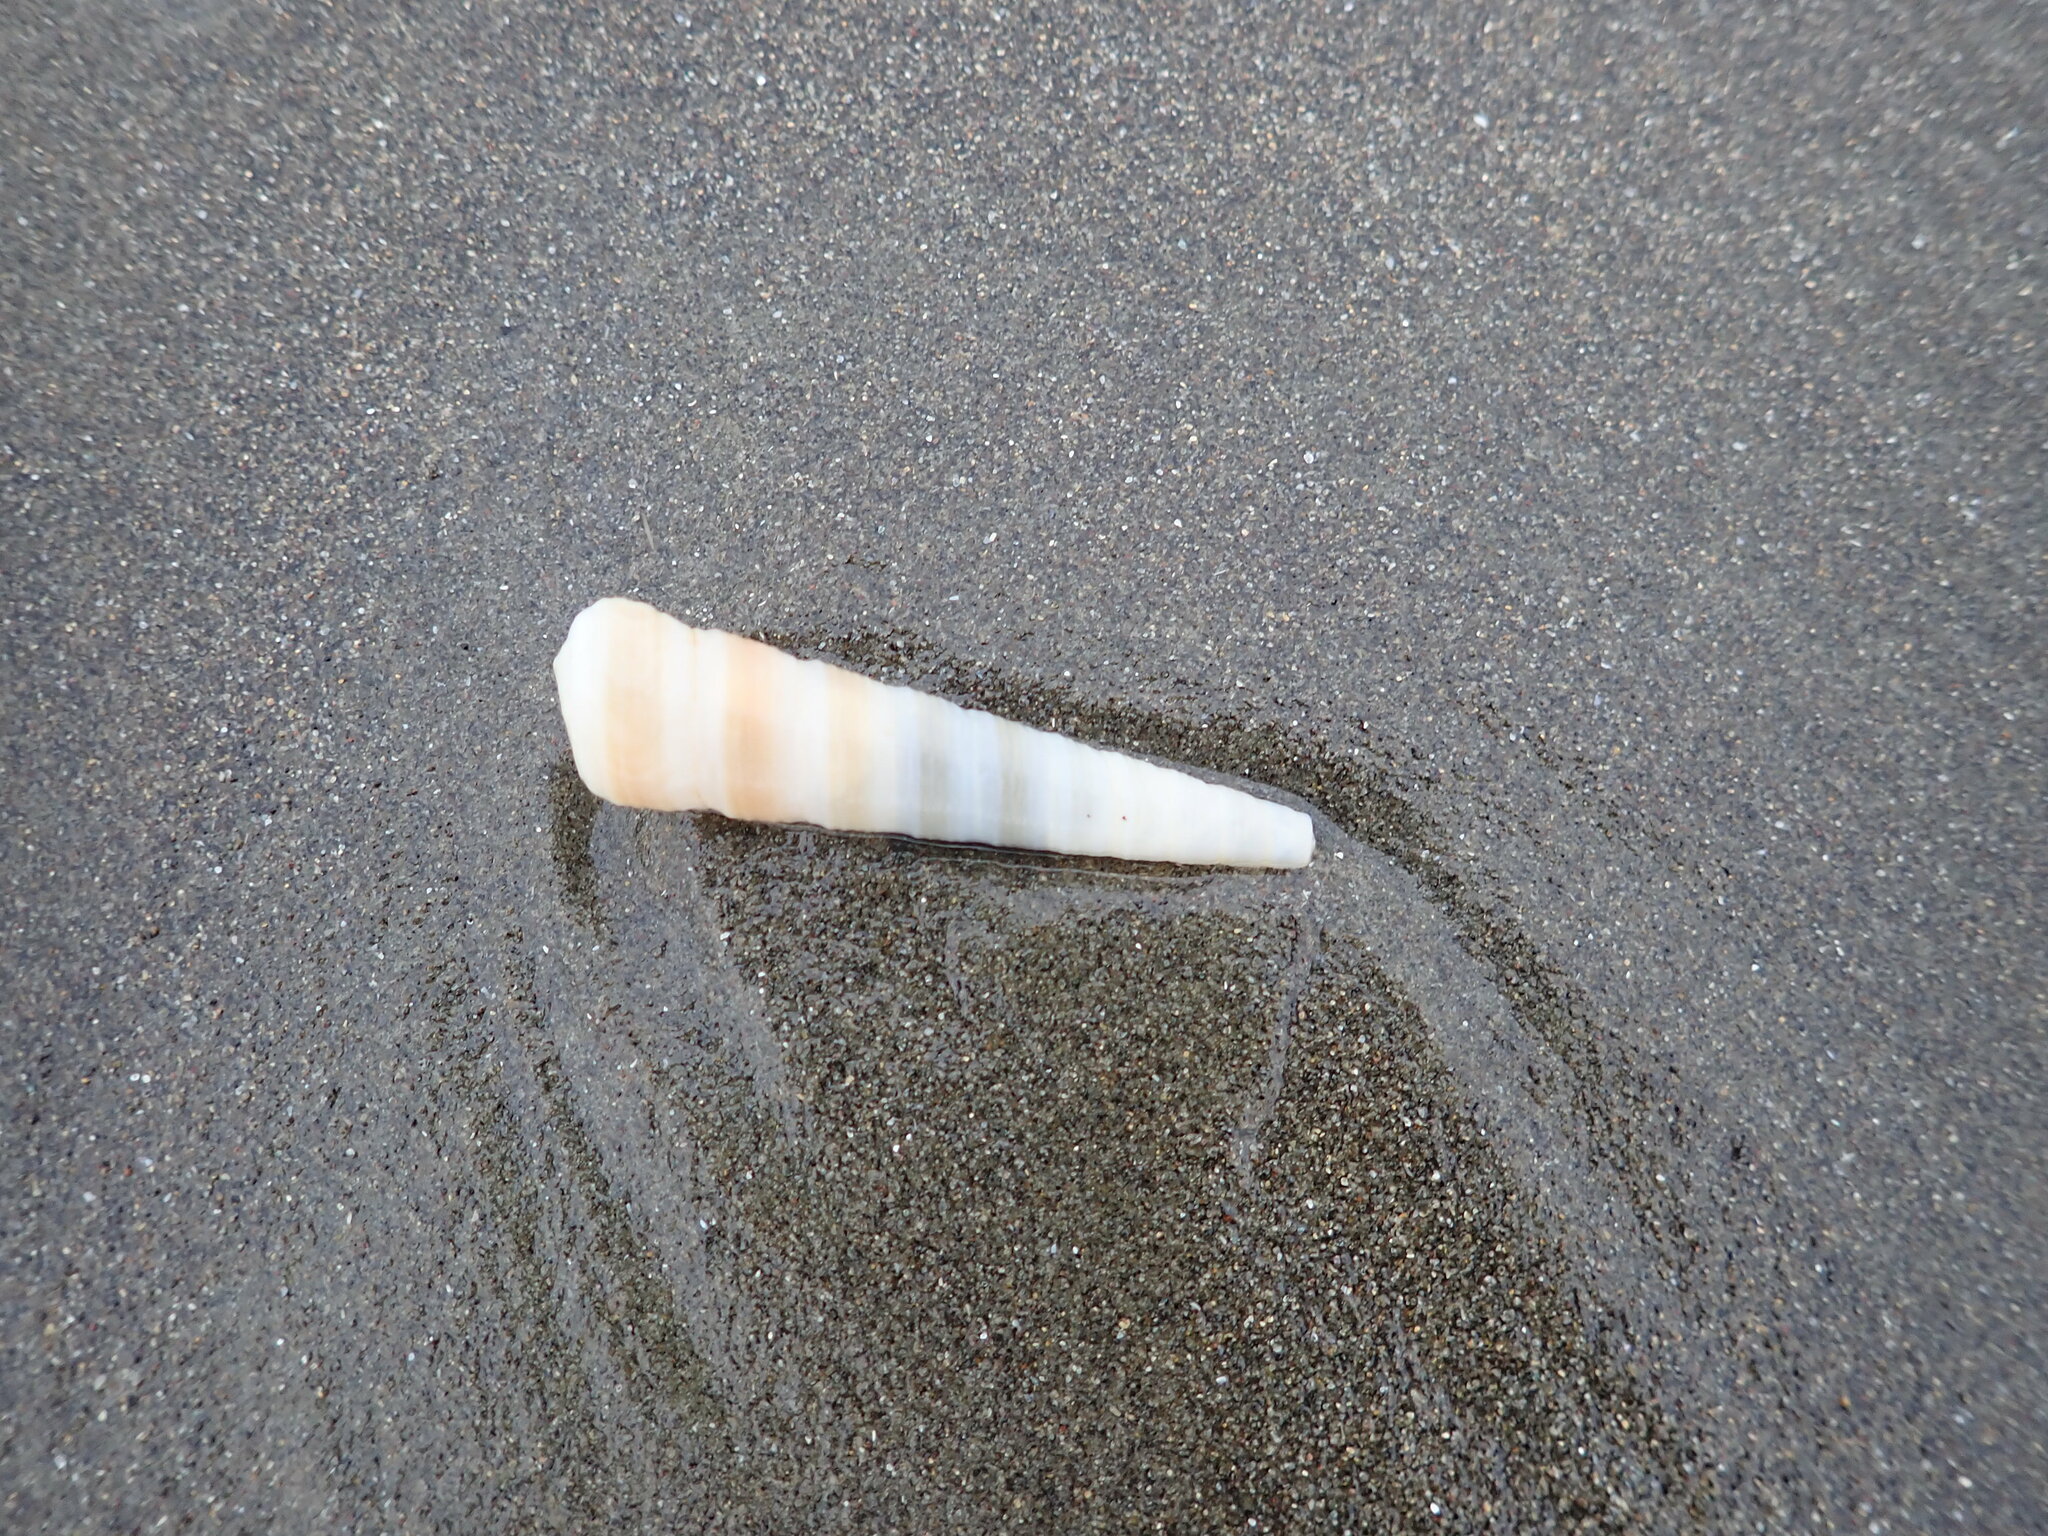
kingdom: Animalia
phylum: Mollusca
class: Gastropoda
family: Turritellidae
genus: Zeacolpus
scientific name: Zeacolpus vittatus
